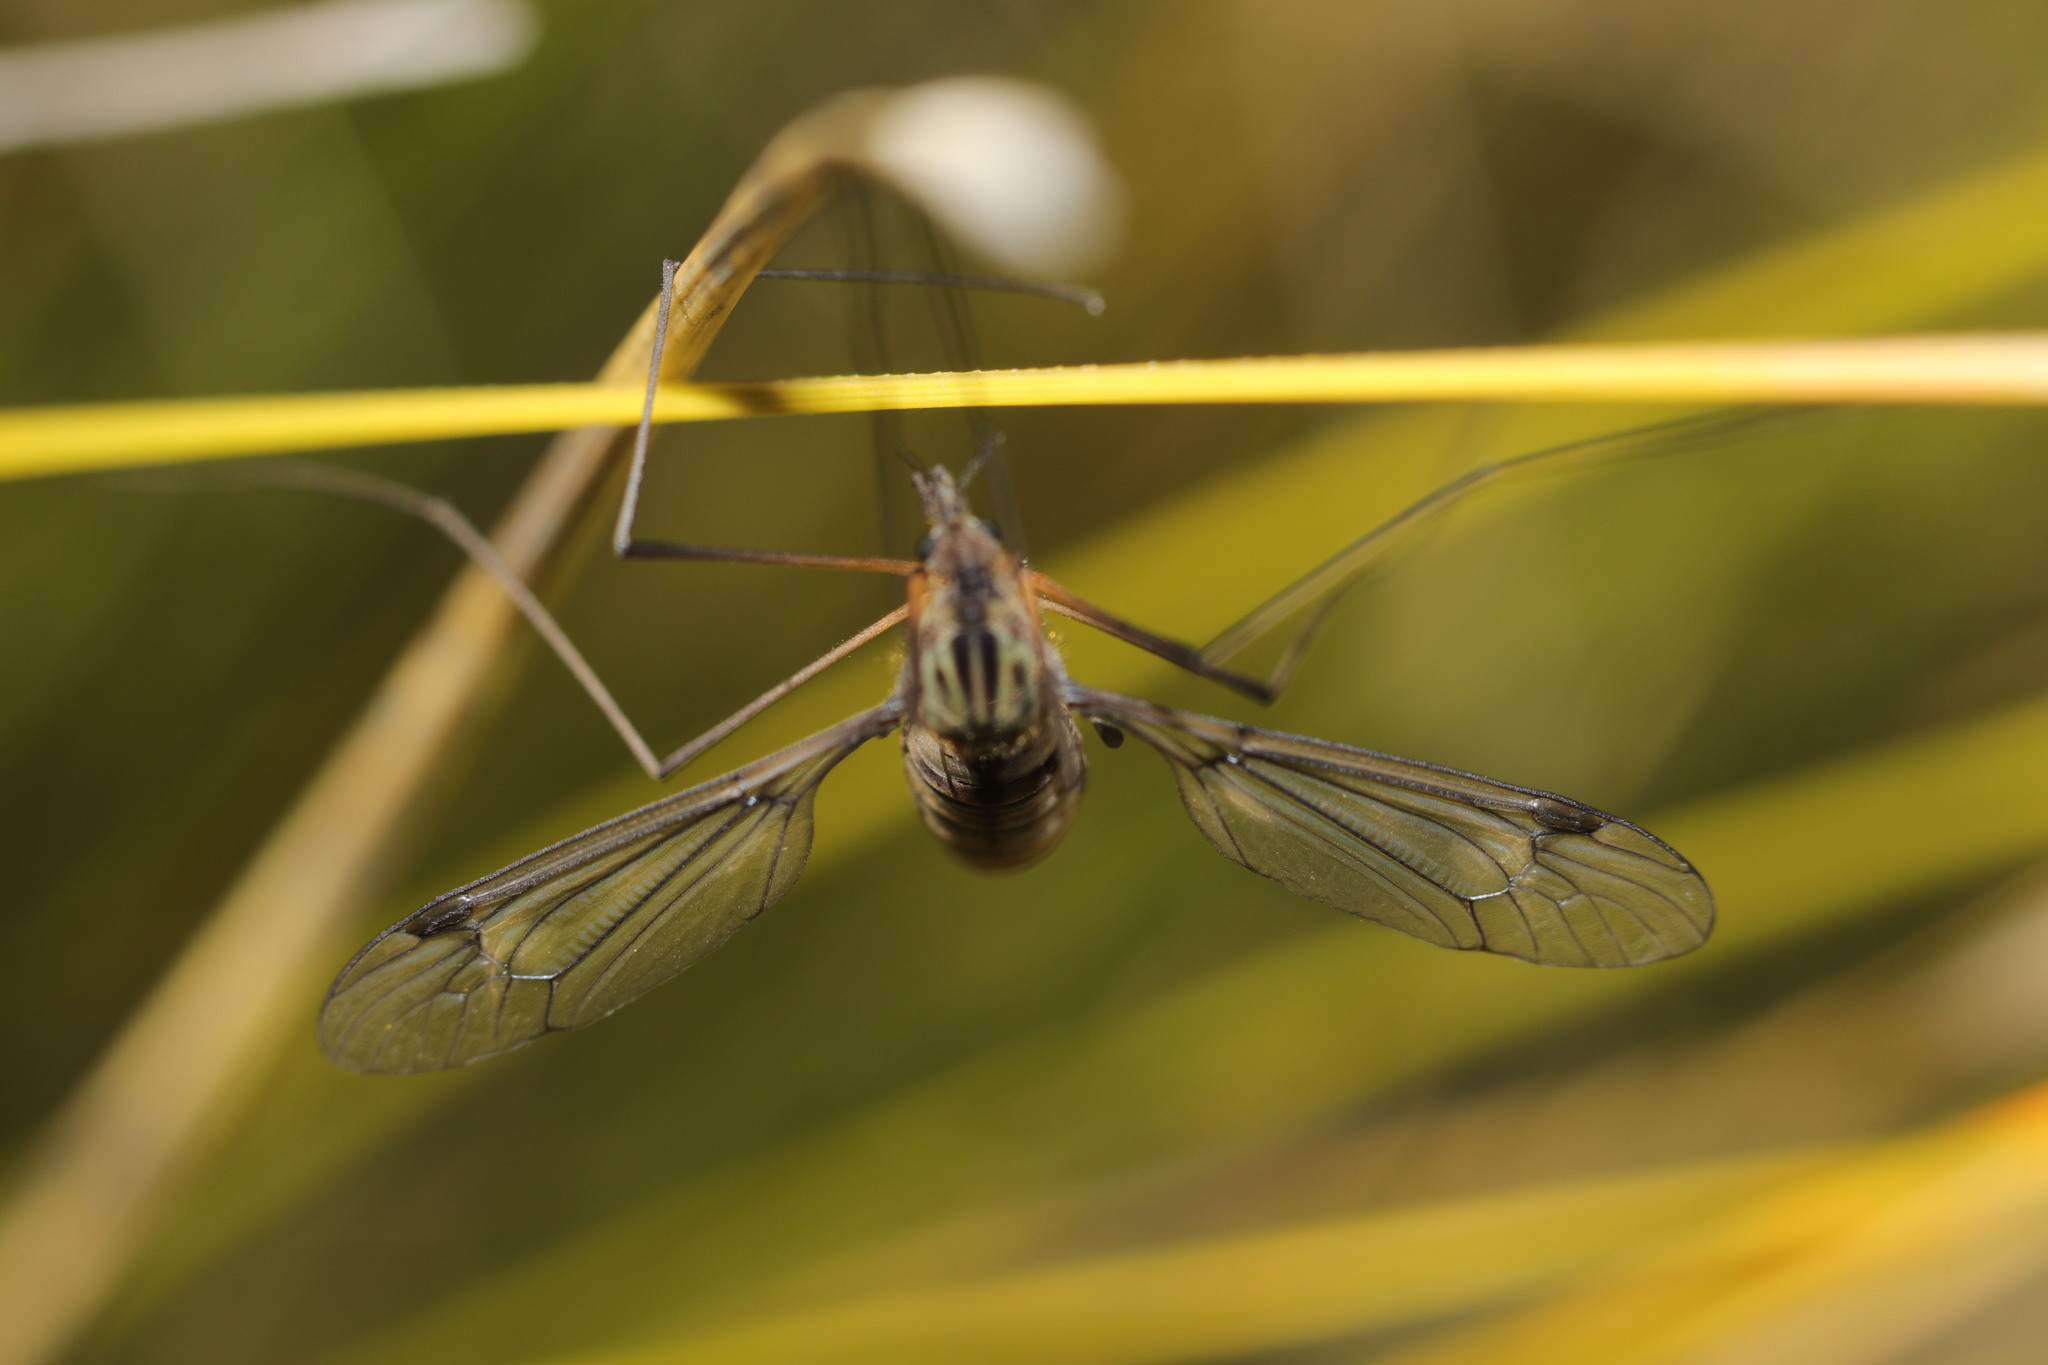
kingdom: Animalia
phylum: Arthropoda
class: Insecta
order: Diptera
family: Tipulidae
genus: Leptotarsus
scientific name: Leptotarsus rufibasis
